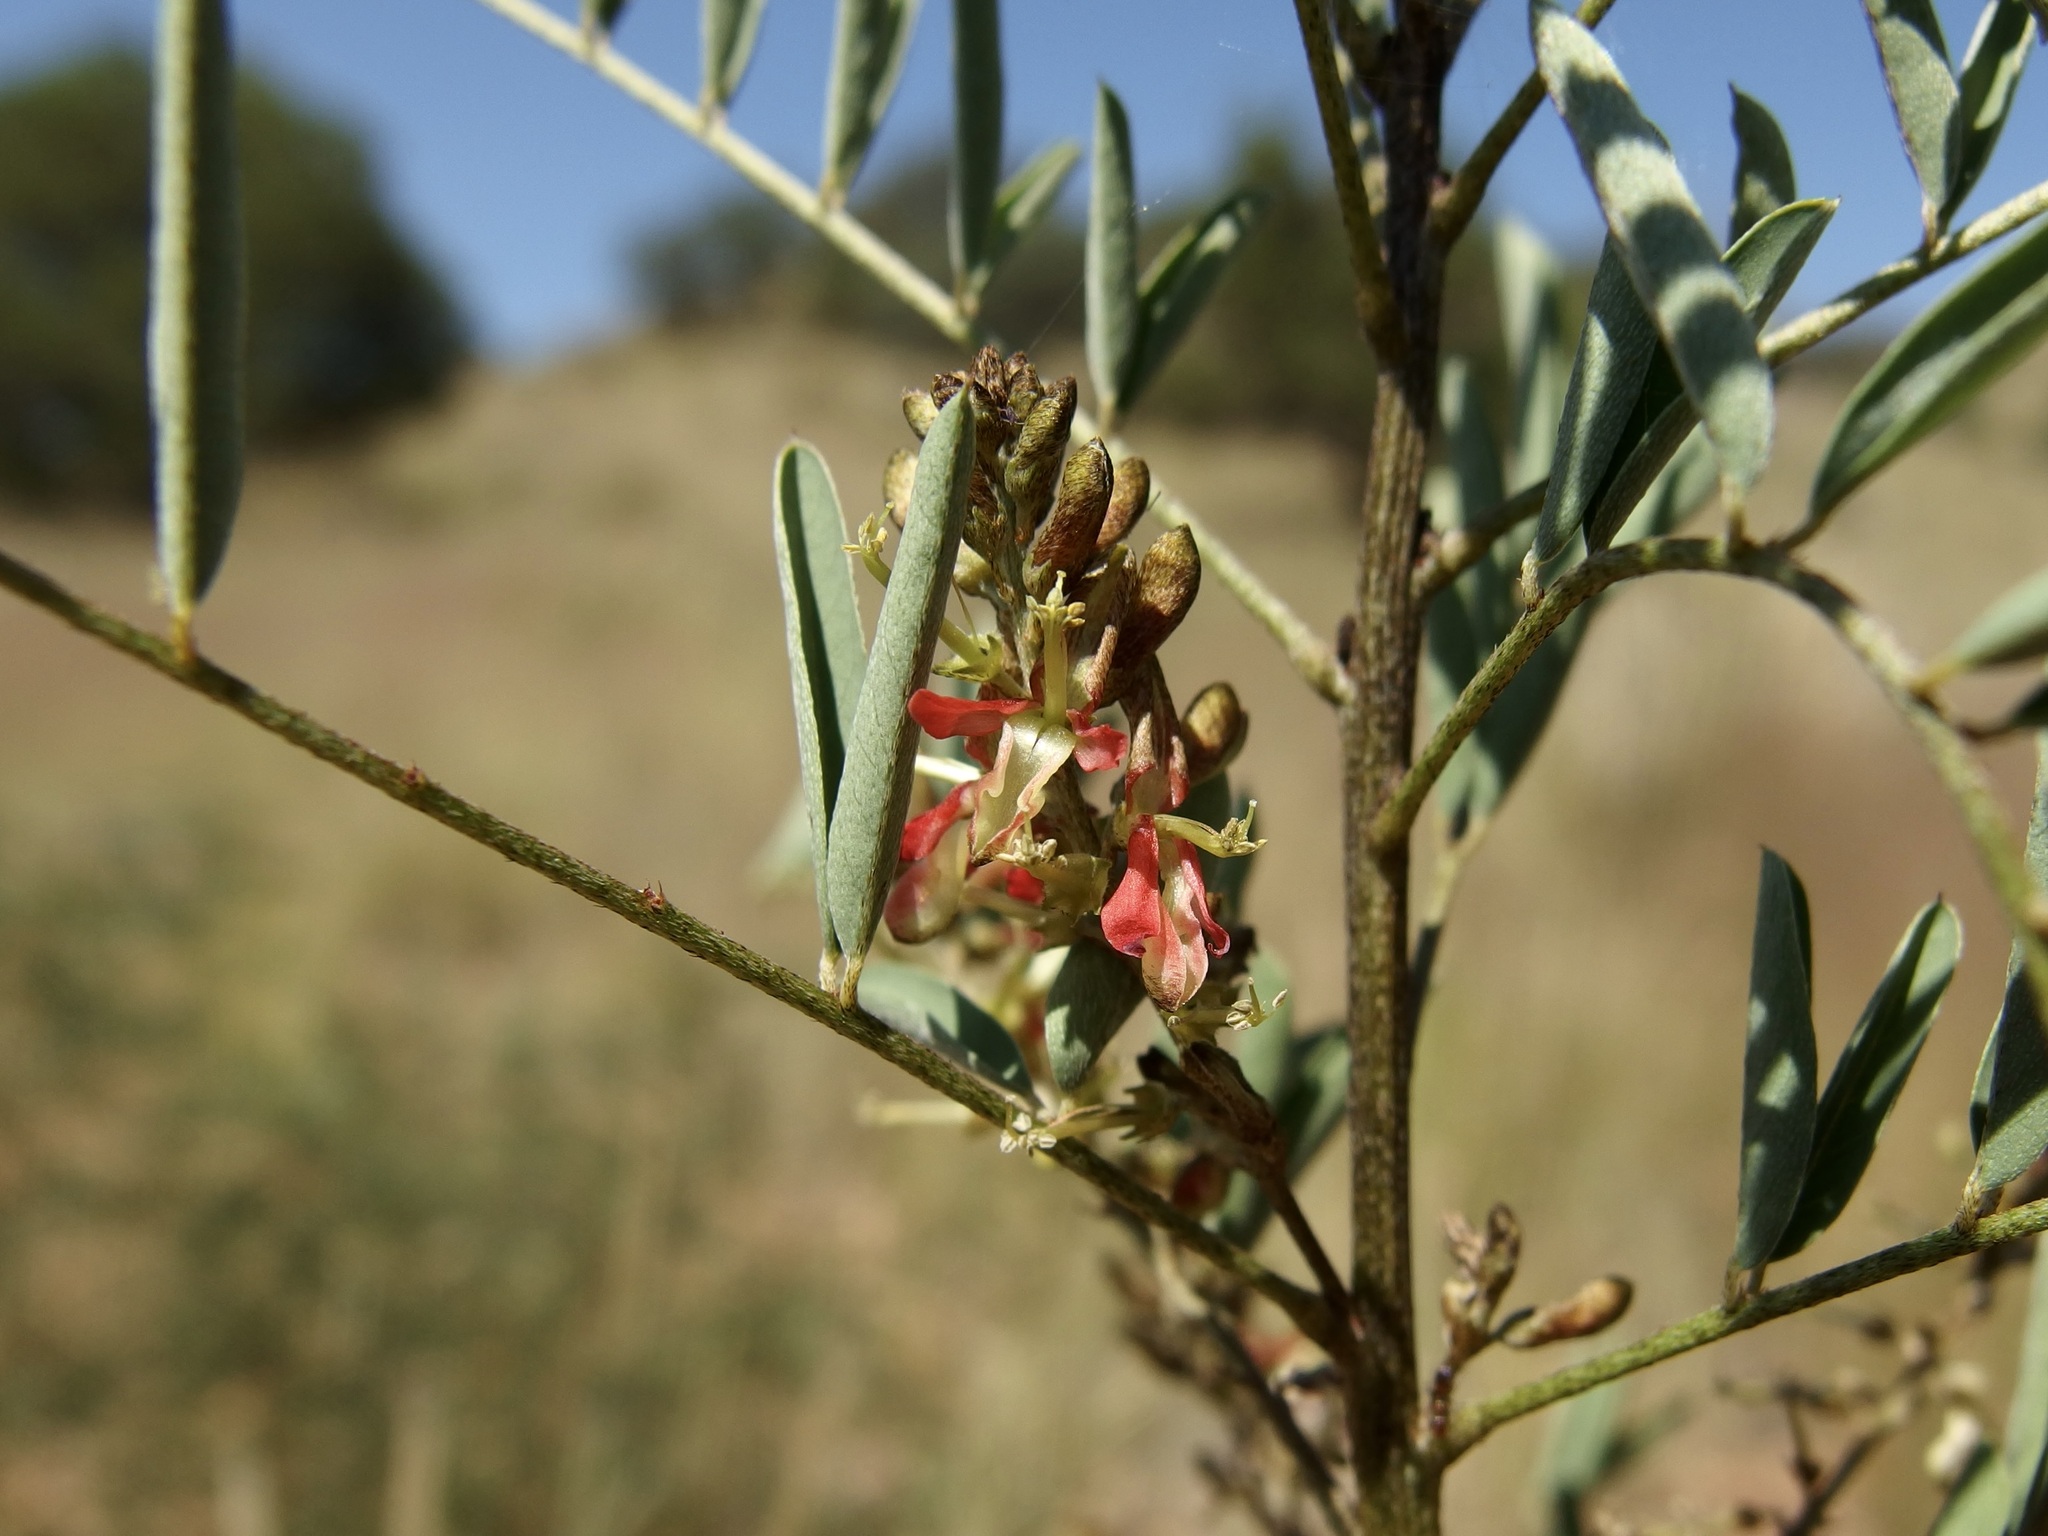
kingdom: Plantae
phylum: Tracheophyta
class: Magnoliopsida
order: Fabales
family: Fabaceae
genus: Indigofera
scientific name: Indigofera sphaerocarpa
